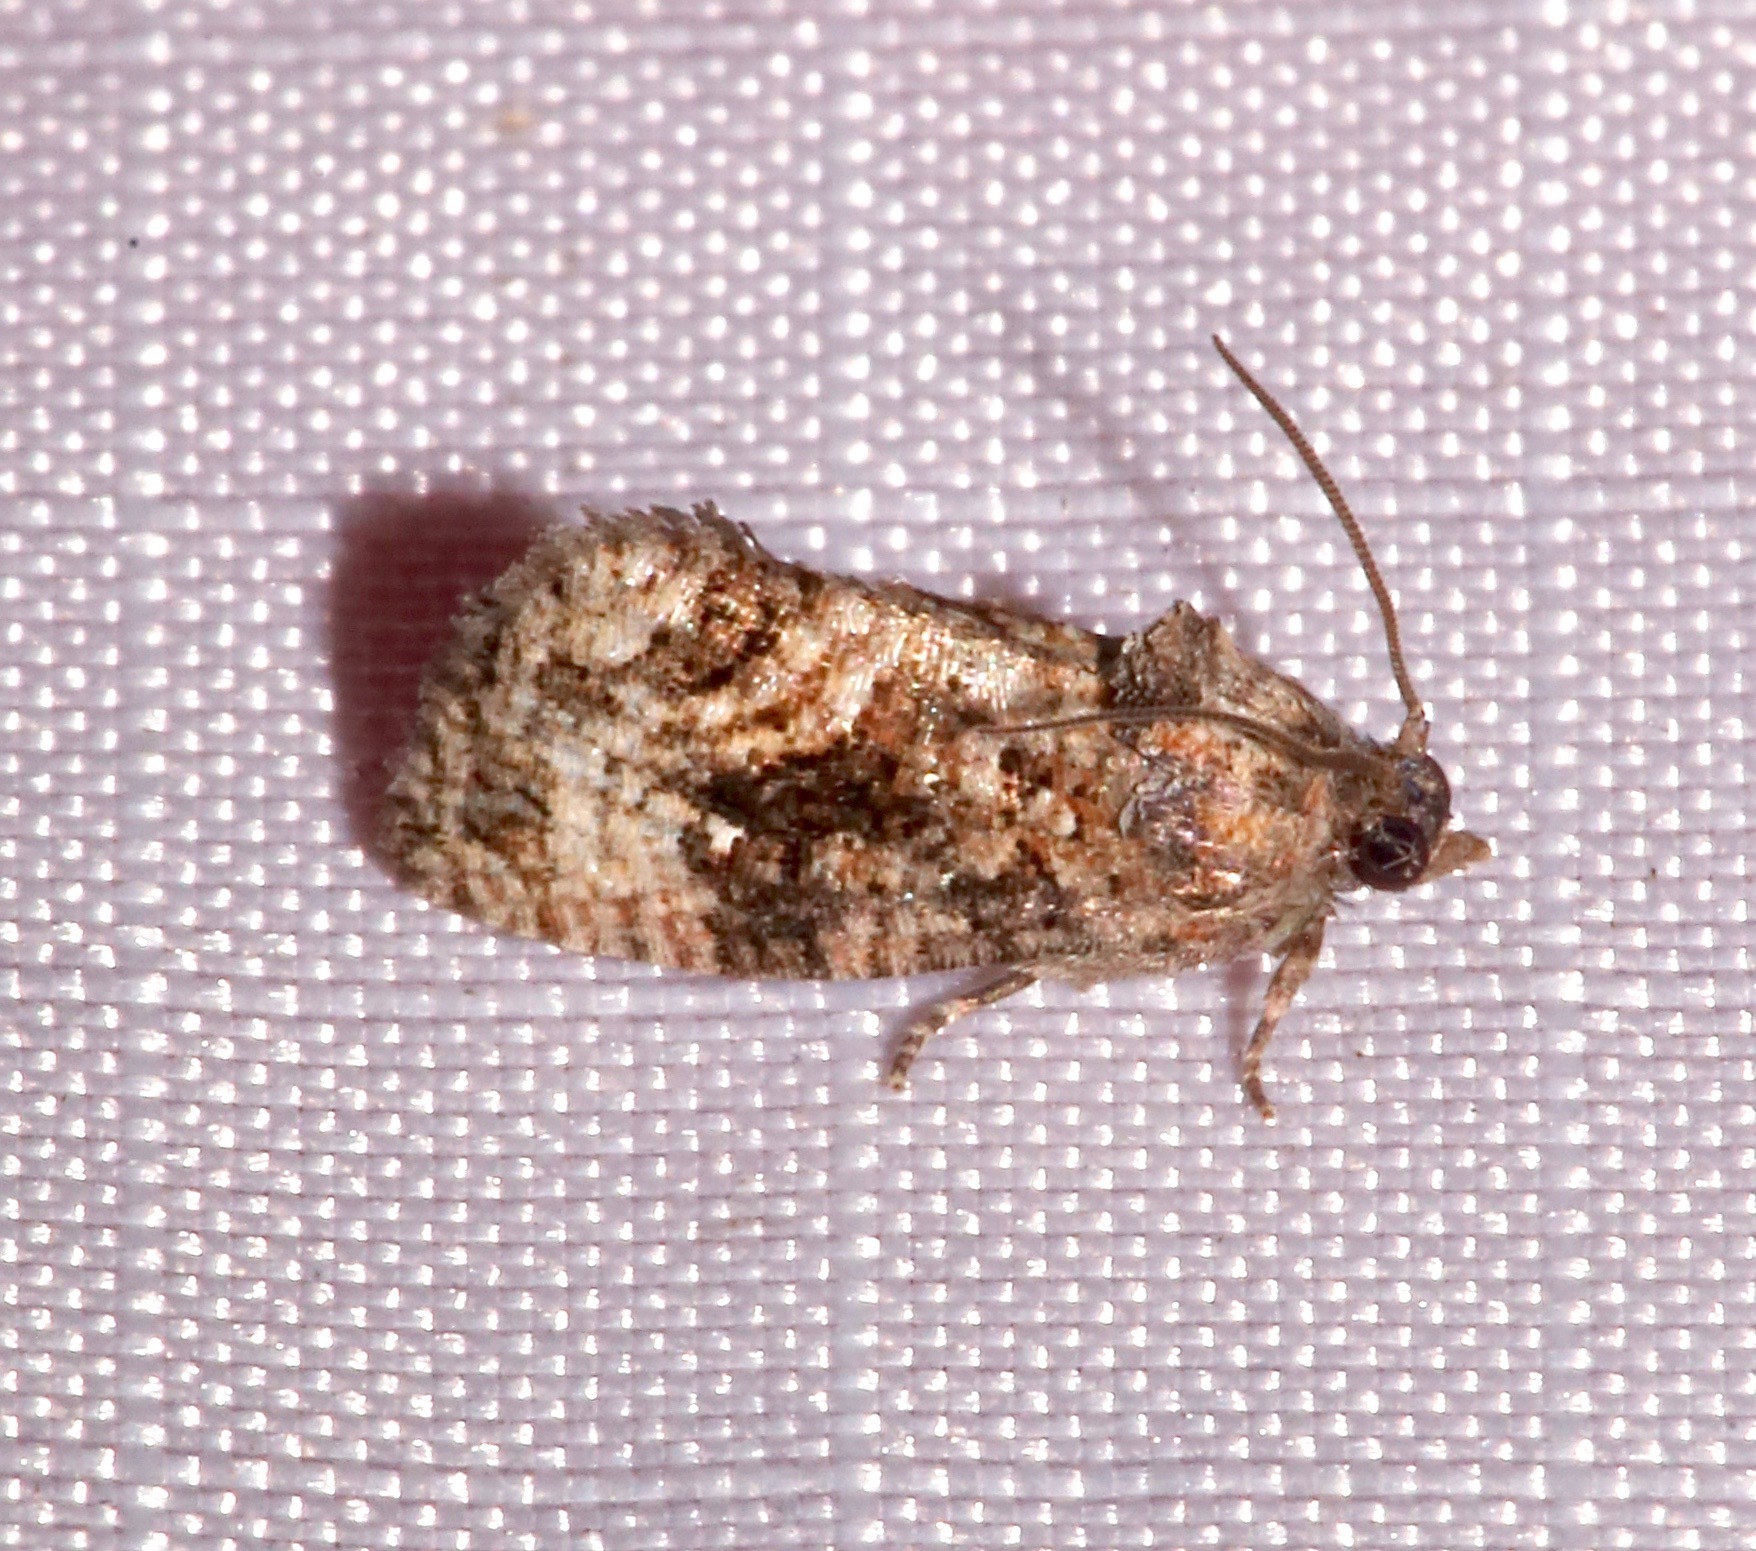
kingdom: Animalia
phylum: Arthropoda
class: Insecta
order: Lepidoptera
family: Tortricidae
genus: Gymnandrosoma
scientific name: Gymnandrosoma punctidiscanum
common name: Dotted ecdytolopha moth
